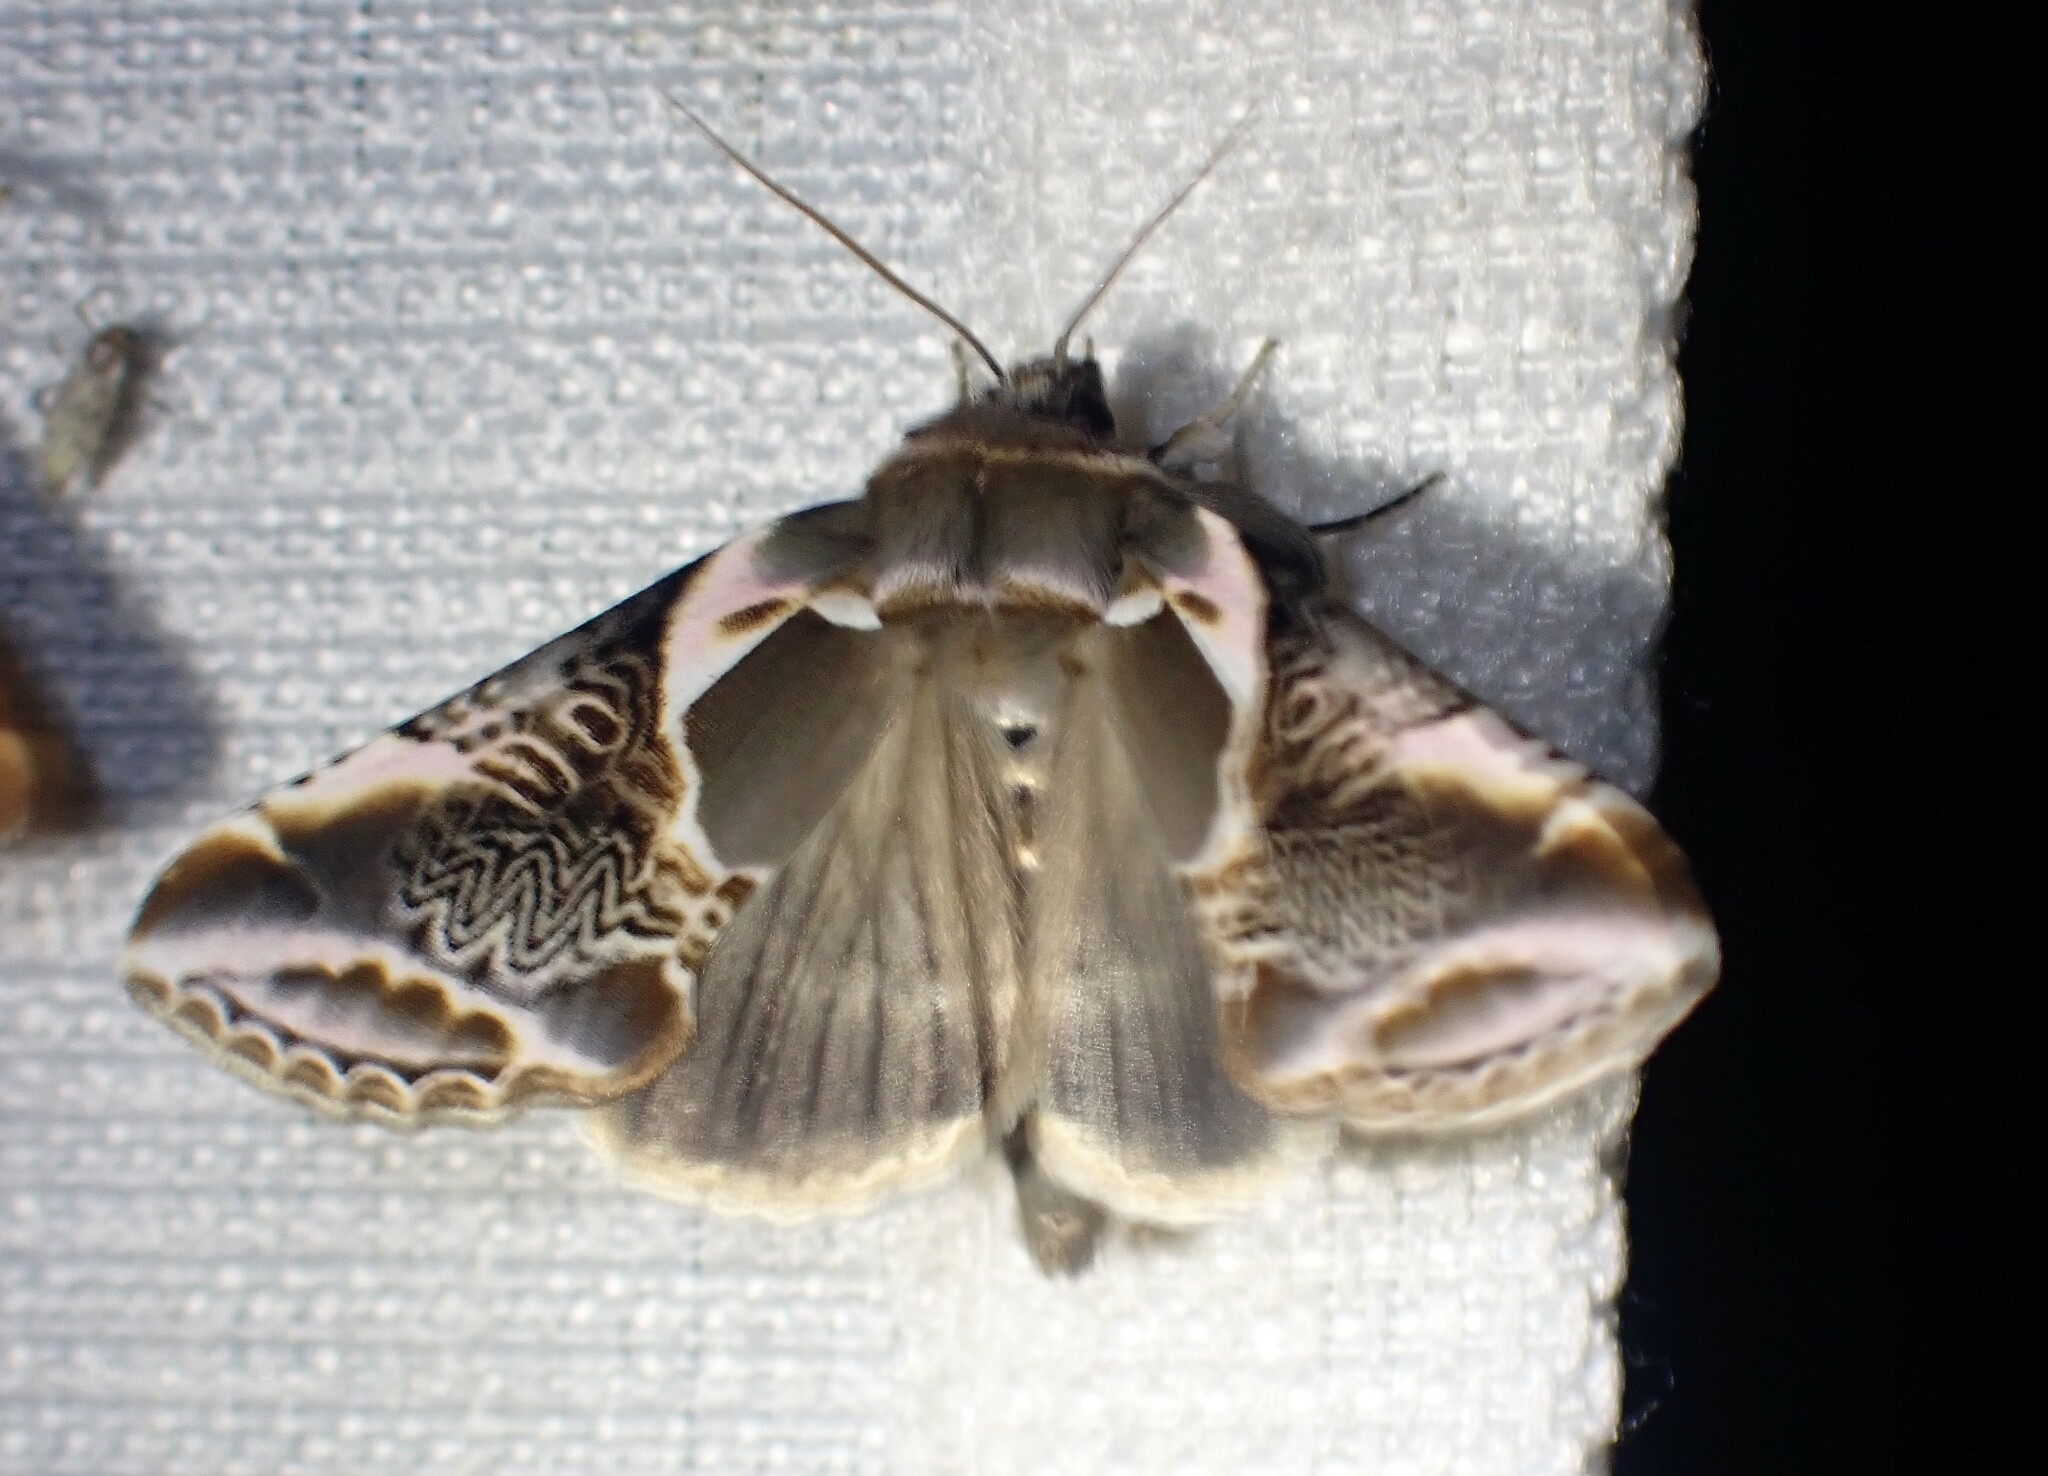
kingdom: Animalia
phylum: Arthropoda
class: Insecta
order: Lepidoptera
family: Drepanidae
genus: Habrosyne
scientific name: Habrosyne scripta
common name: Lettered habrosyne moth
